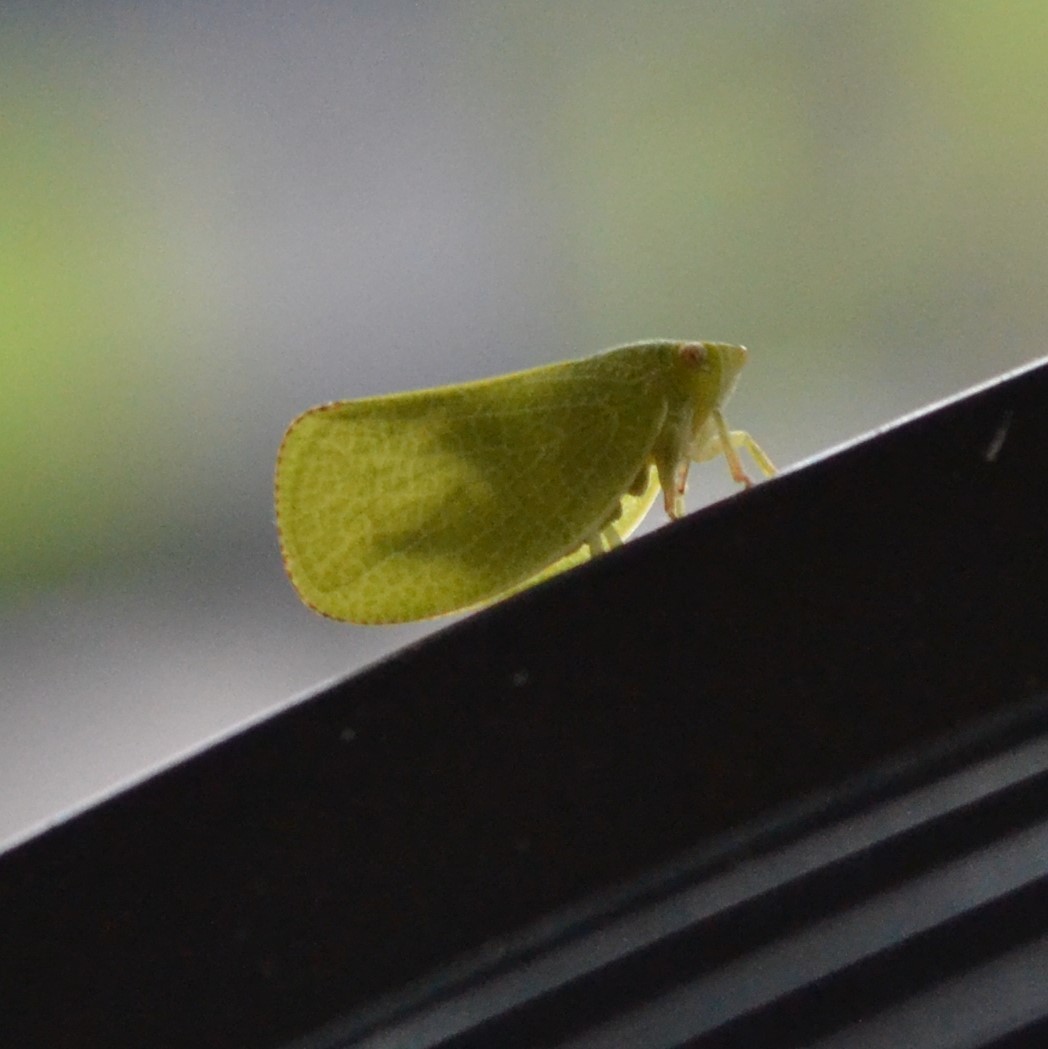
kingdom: Animalia
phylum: Arthropoda
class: Insecta
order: Hemiptera
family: Acanaloniidae
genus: Acanalonia
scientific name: Acanalonia conica
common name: Green cone-headed planthopper
